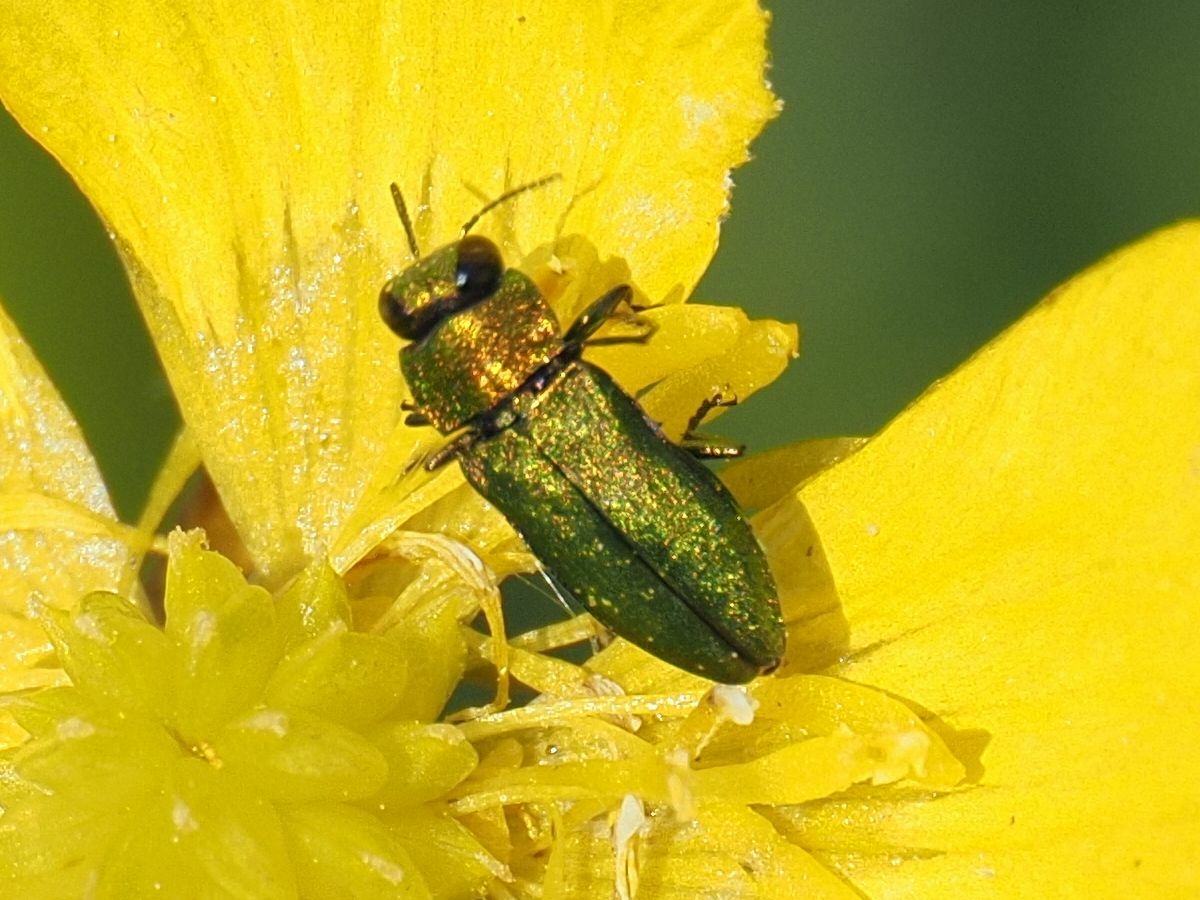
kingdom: Animalia
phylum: Arthropoda
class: Insecta
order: Coleoptera
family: Buprestidae
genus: Anthaxia
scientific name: Anthaxia nitidula
